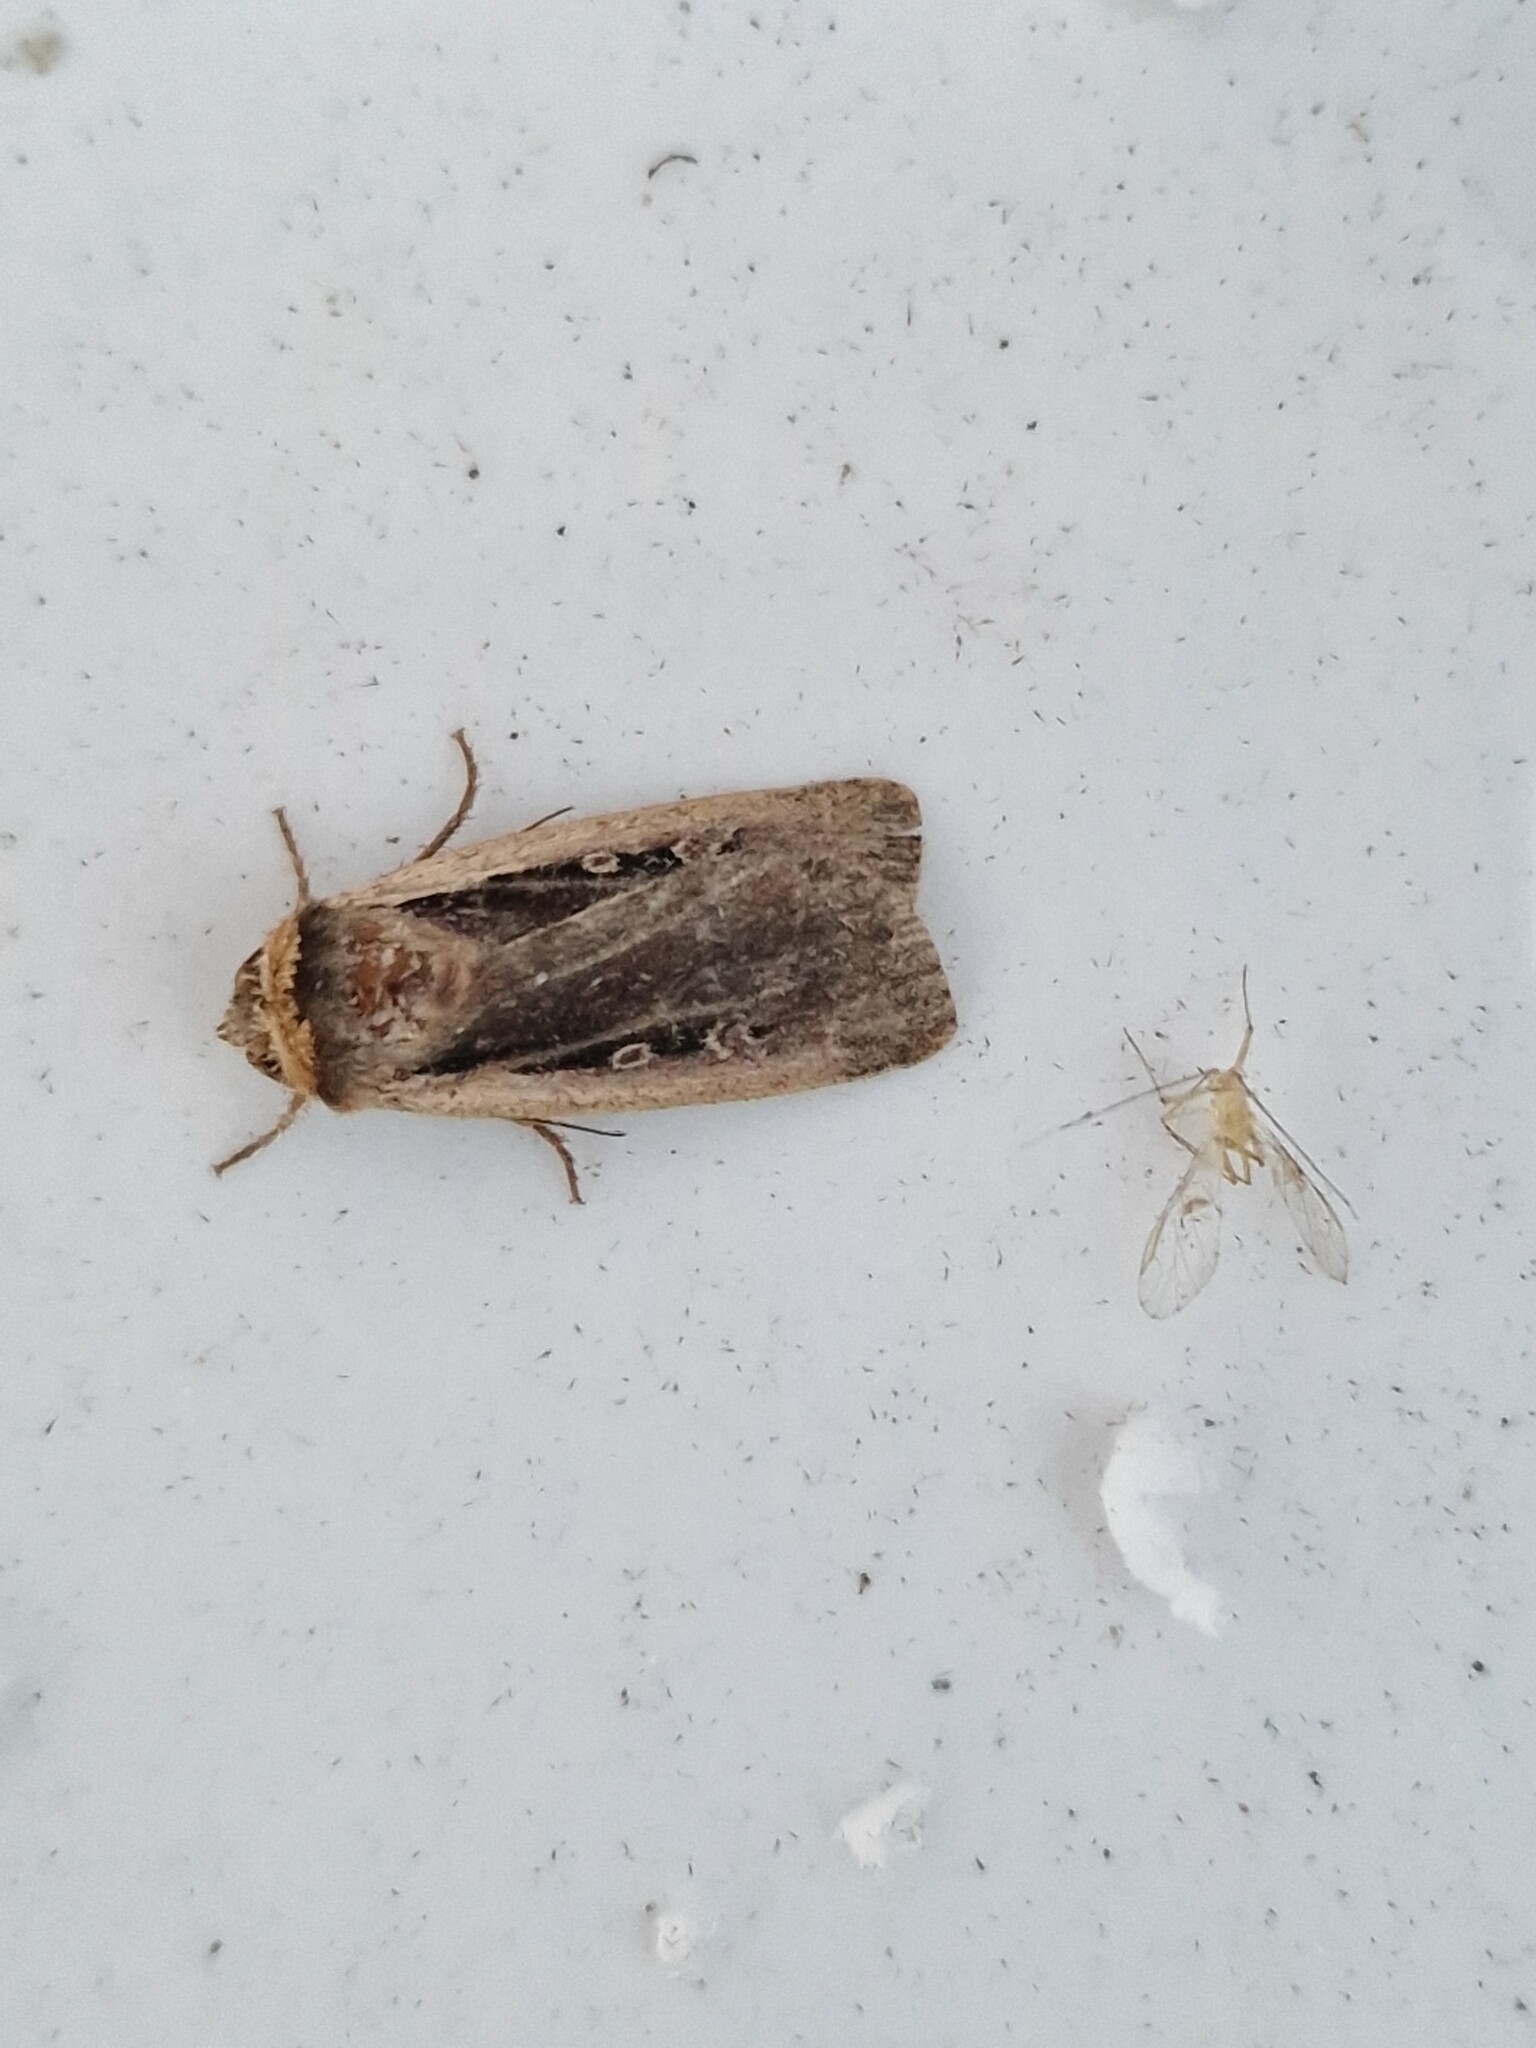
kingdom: Animalia
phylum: Arthropoda
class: Insecta
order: Lepidoptera
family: Noctuidae
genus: Ochropleura
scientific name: Ochropleura plecta
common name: Flame shoulder
